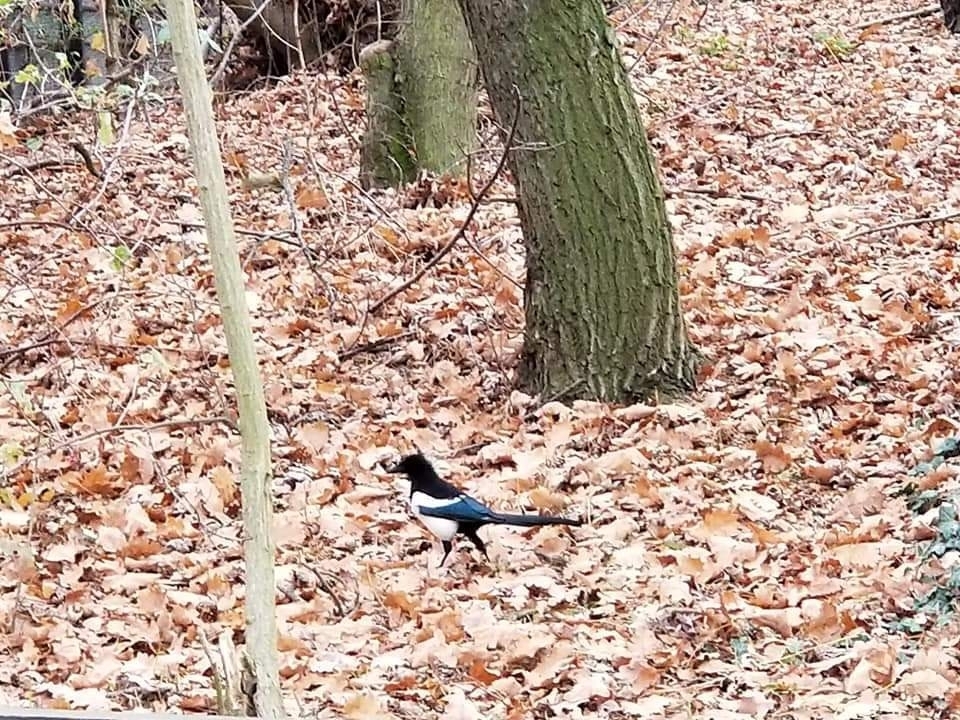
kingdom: Animalia
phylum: Chordata
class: Aves
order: Passeriformes
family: Corvidae
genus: Pica
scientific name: Pica pica
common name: Eurasian magpie
